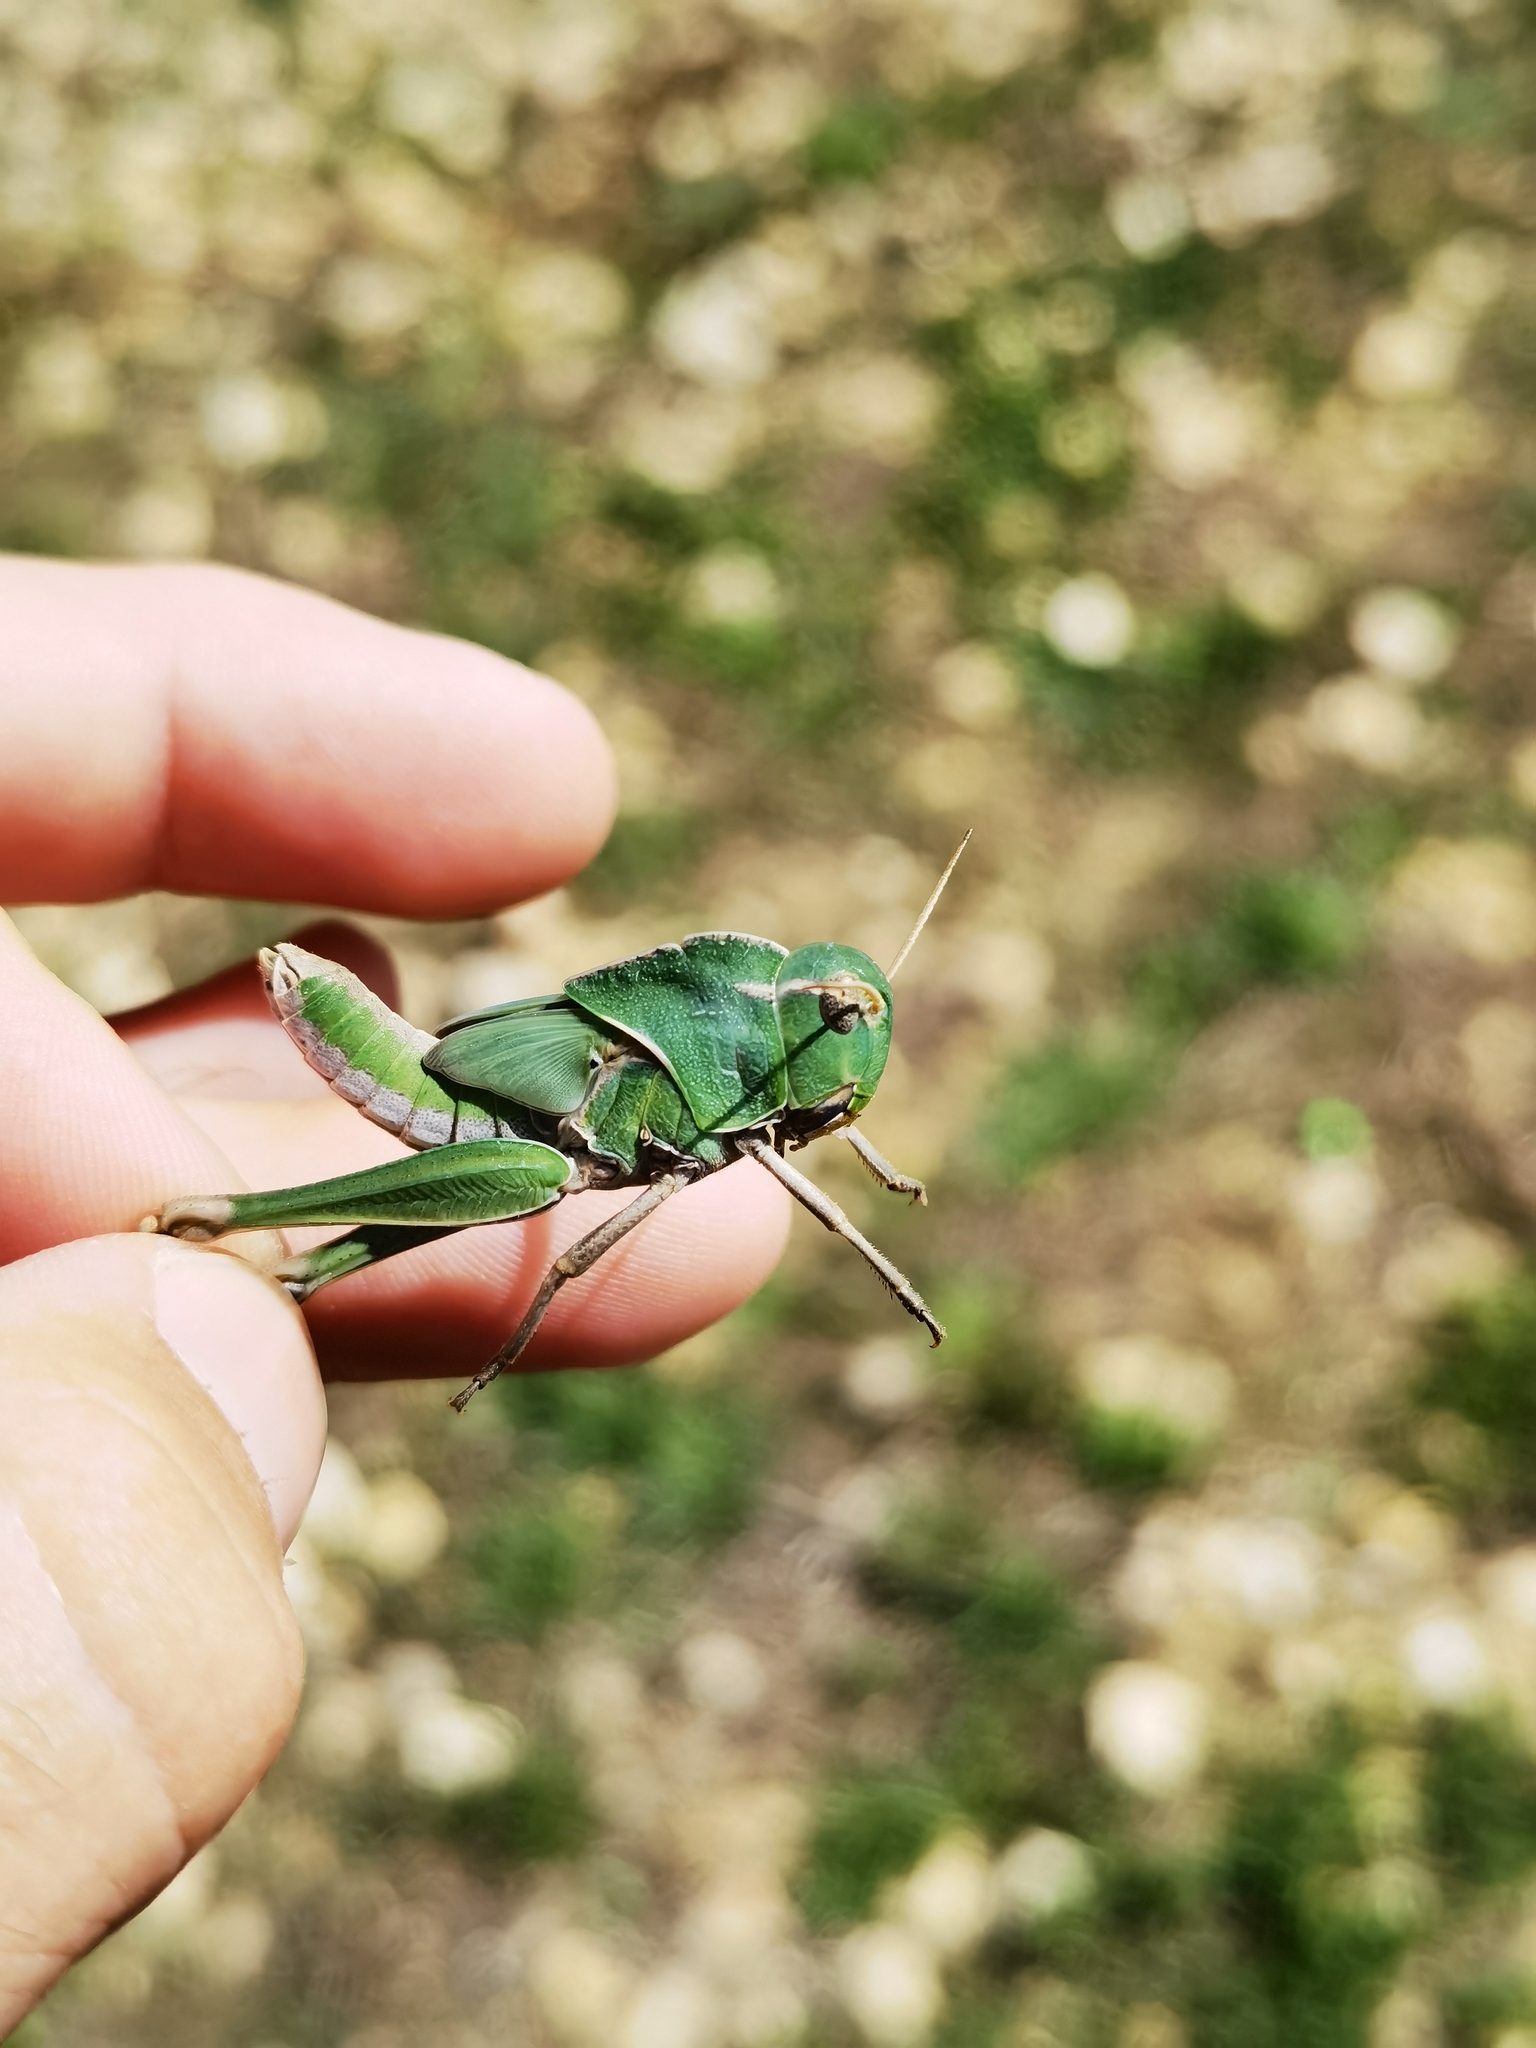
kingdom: Animalia
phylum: Arthropoda
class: Insecta
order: Orthoptera
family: Acrididae
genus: Locusta
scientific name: Locusta migratoria
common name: Migratory locust
